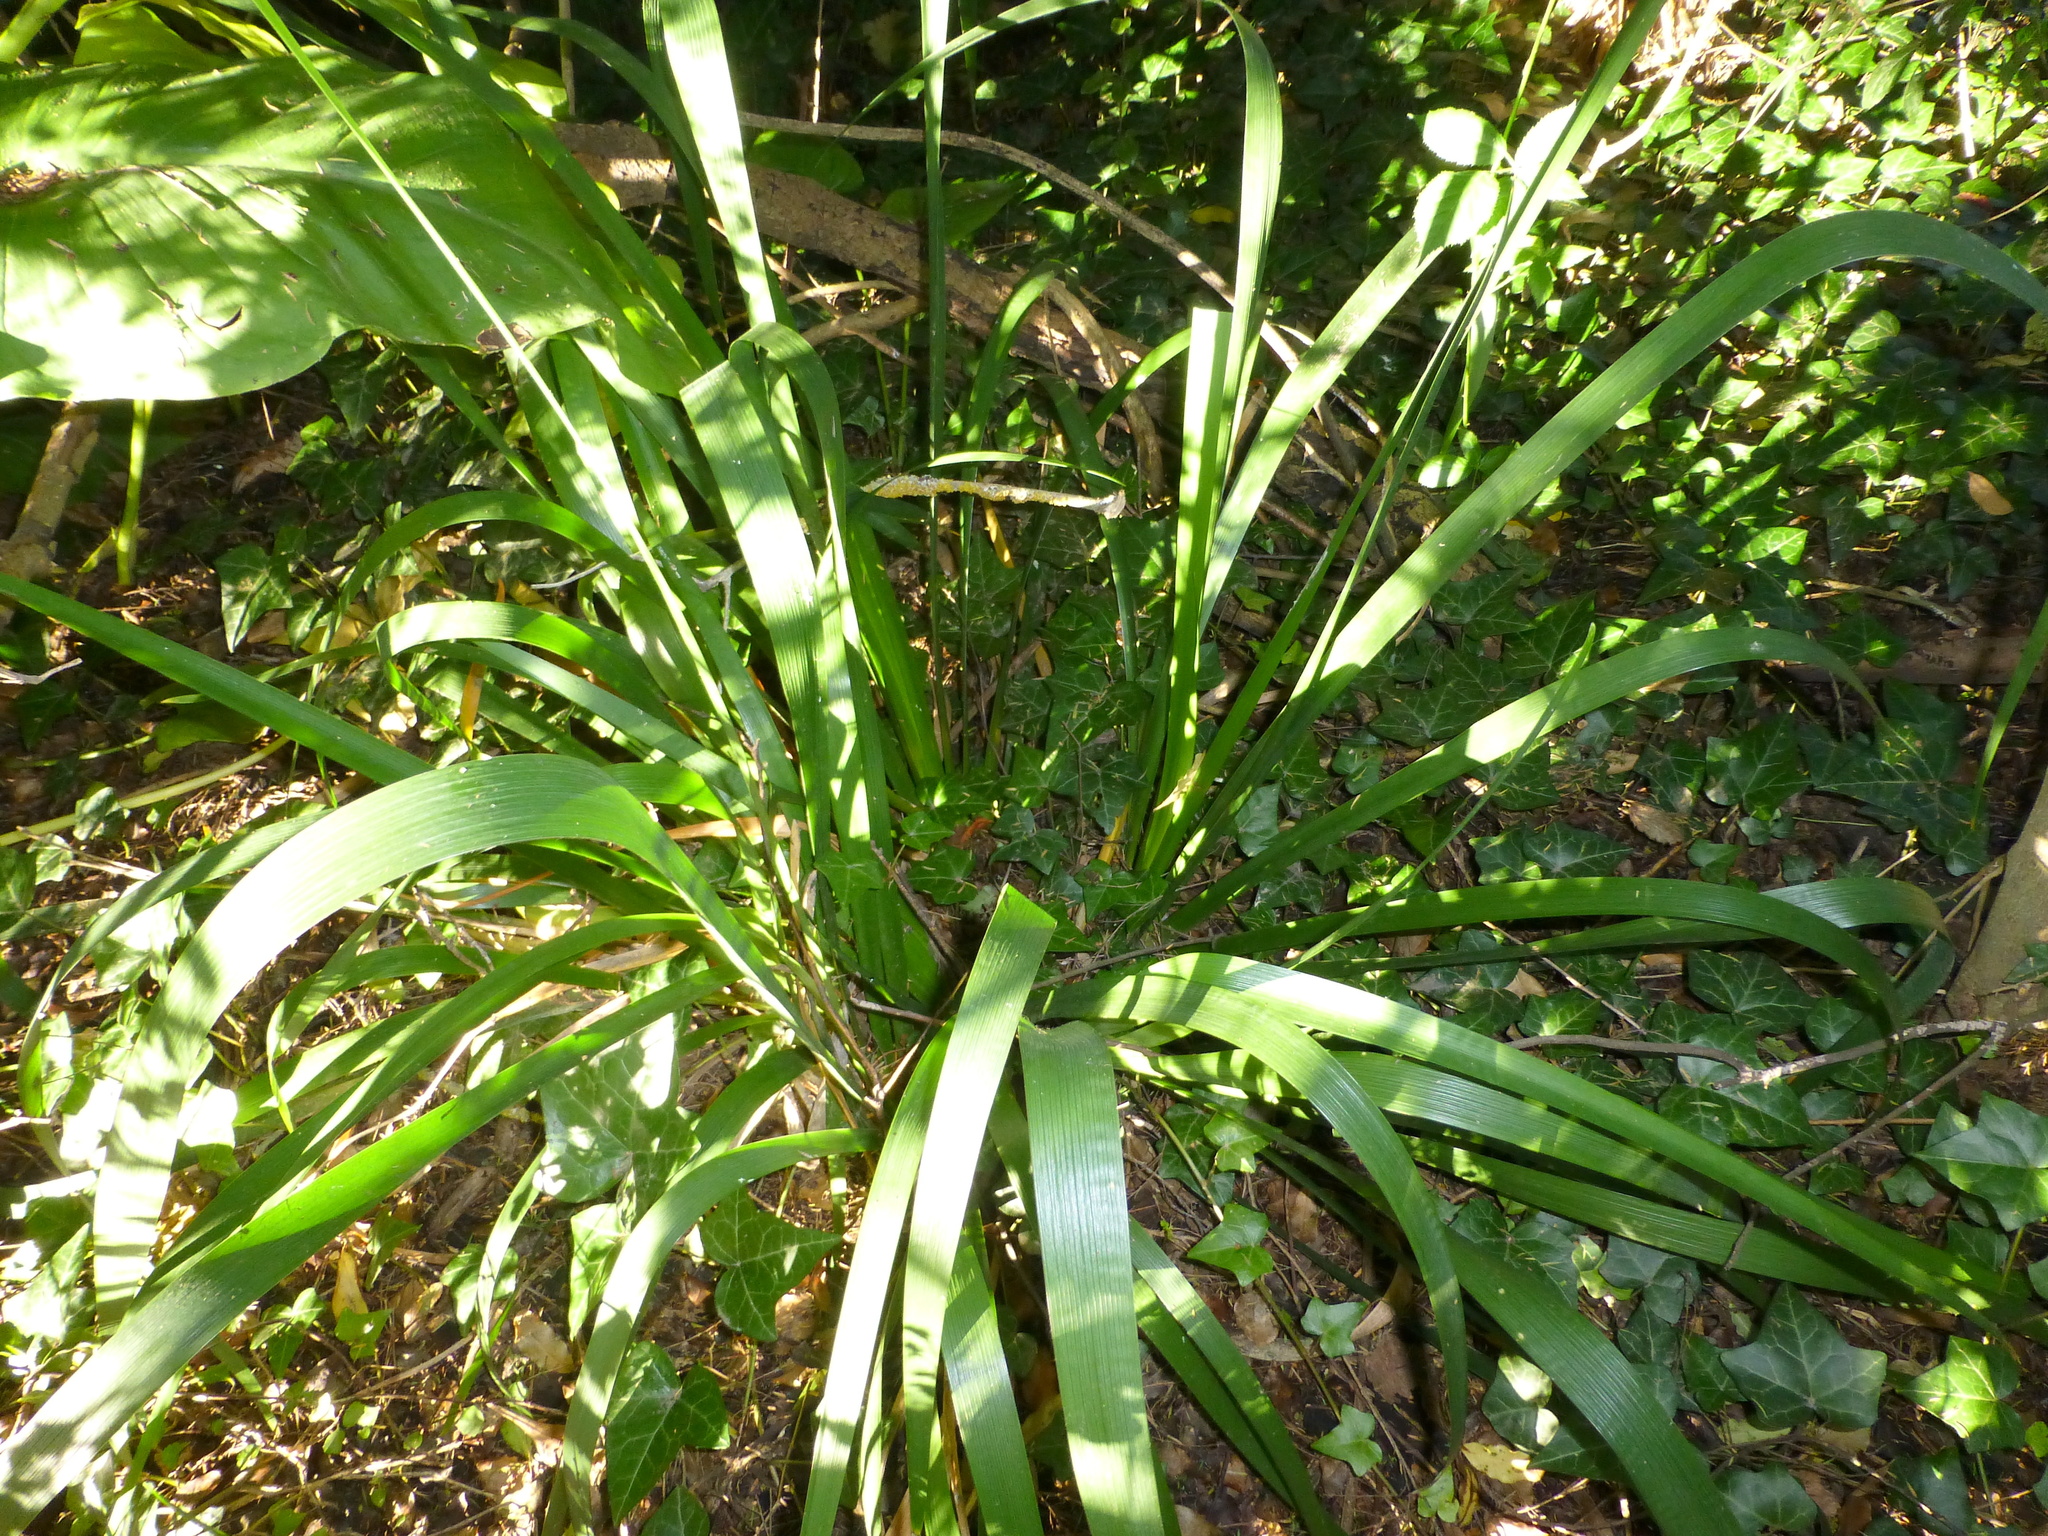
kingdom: Plantae
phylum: Tracheophyta
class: Liliopsida
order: Asparagales
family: Iridaceae
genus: Iris
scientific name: Iris foetidissima
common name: Stinking iris
